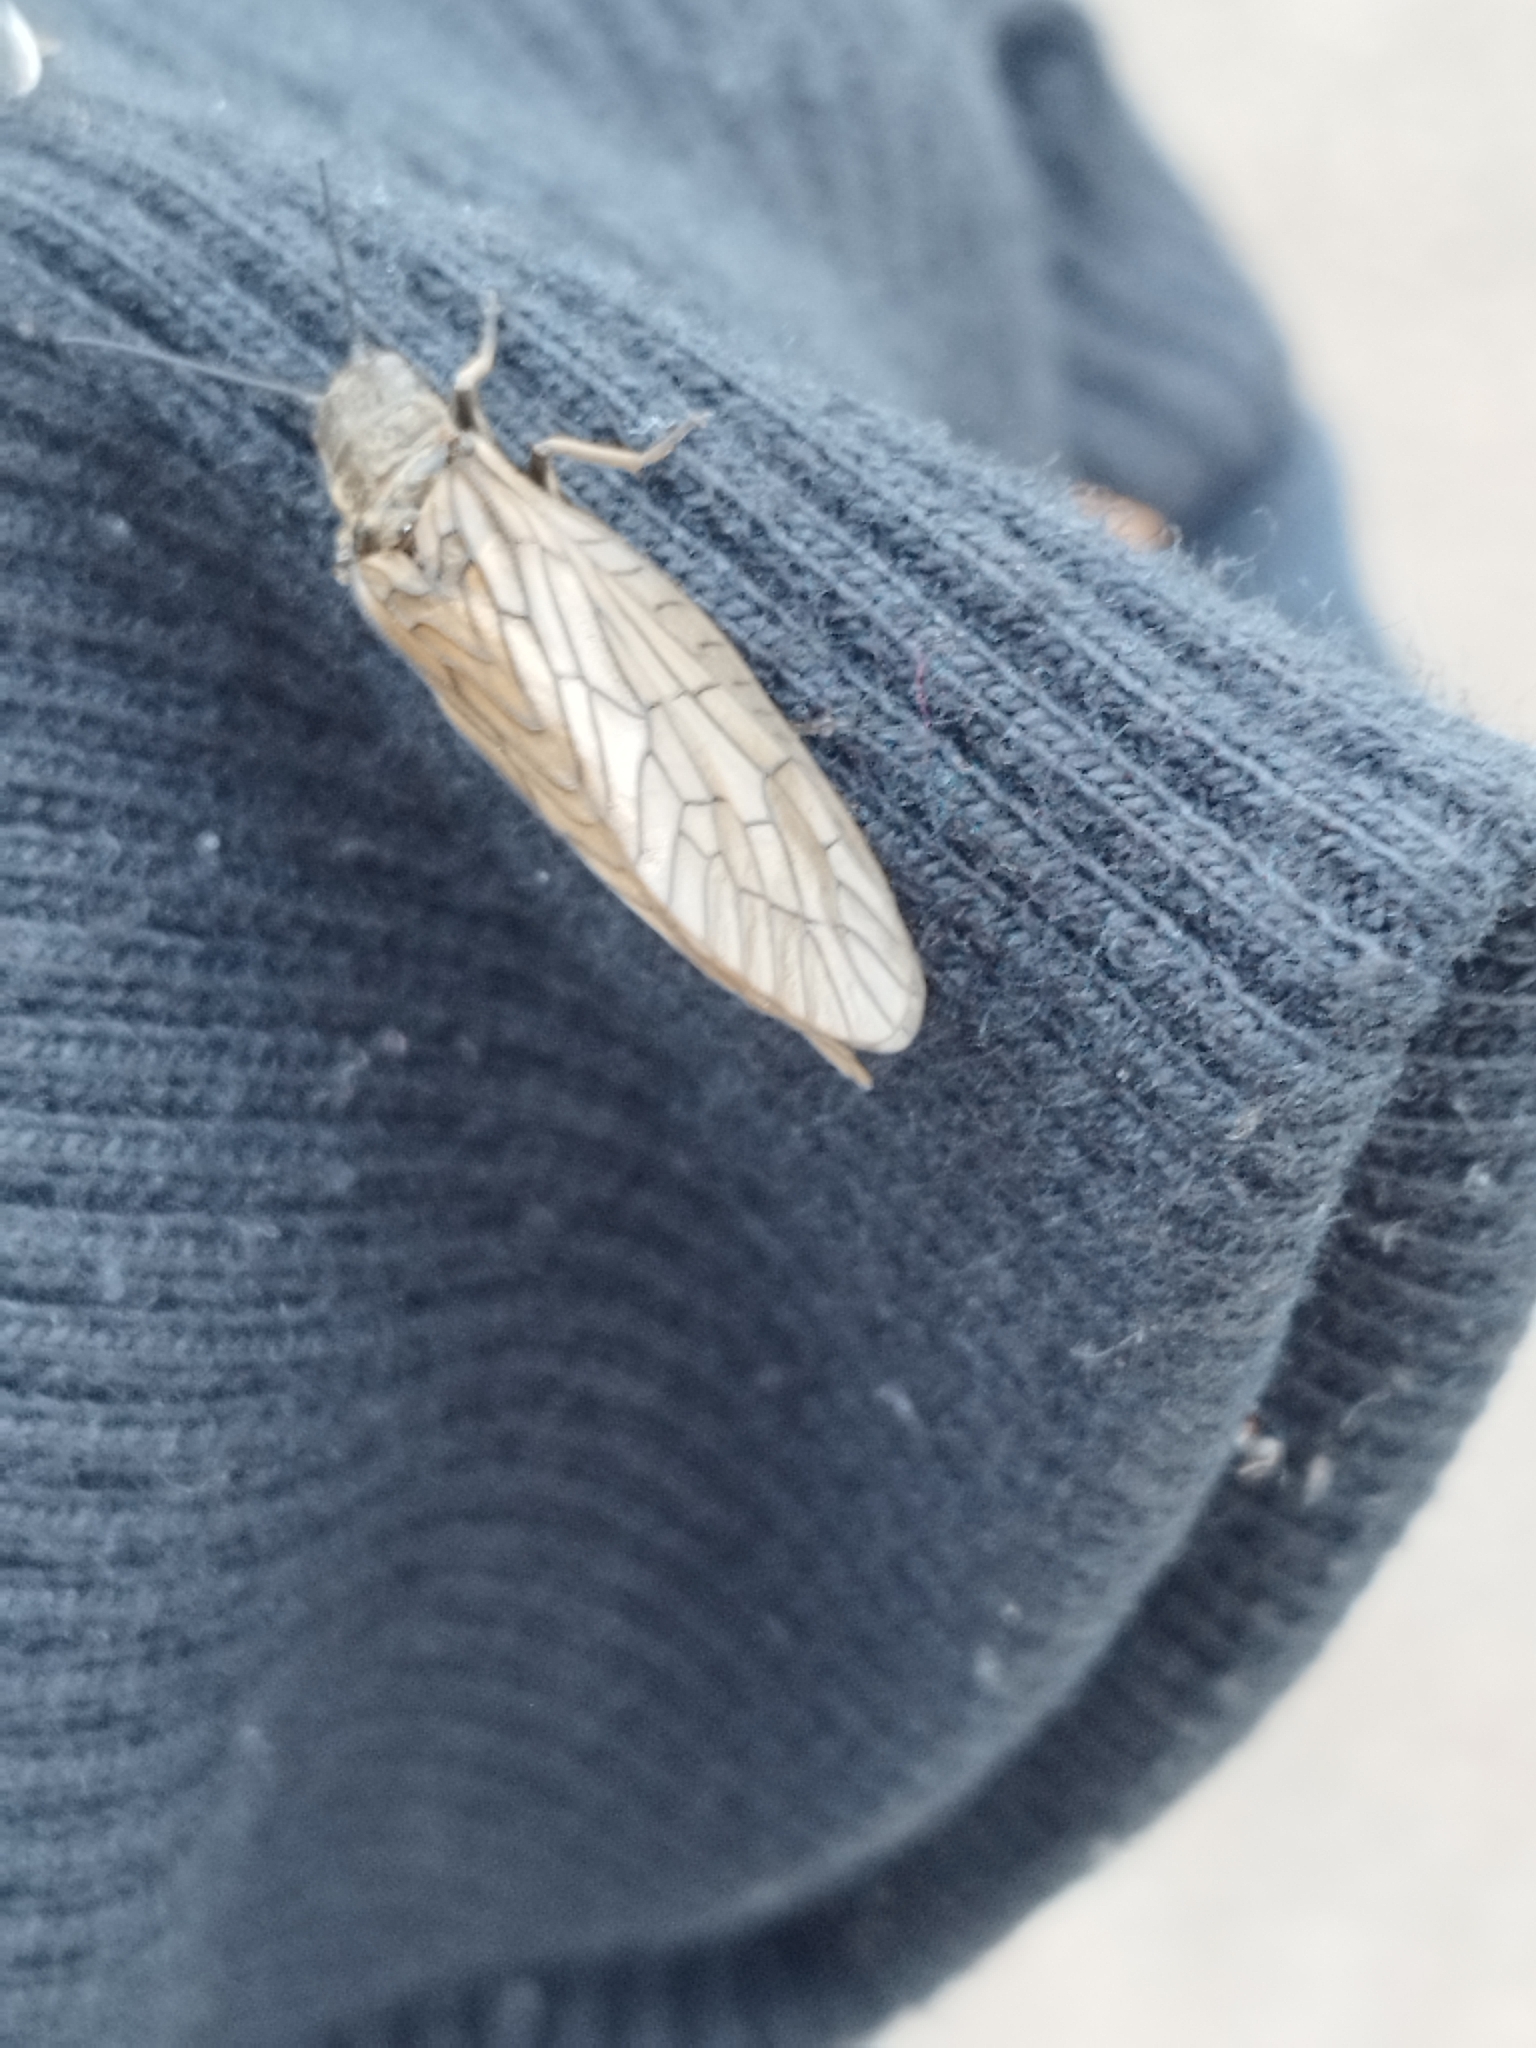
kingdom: Animalia
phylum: Arthropoda
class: Insecta
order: Megaloptera
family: Sialidae
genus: Sialis
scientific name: Sialis
